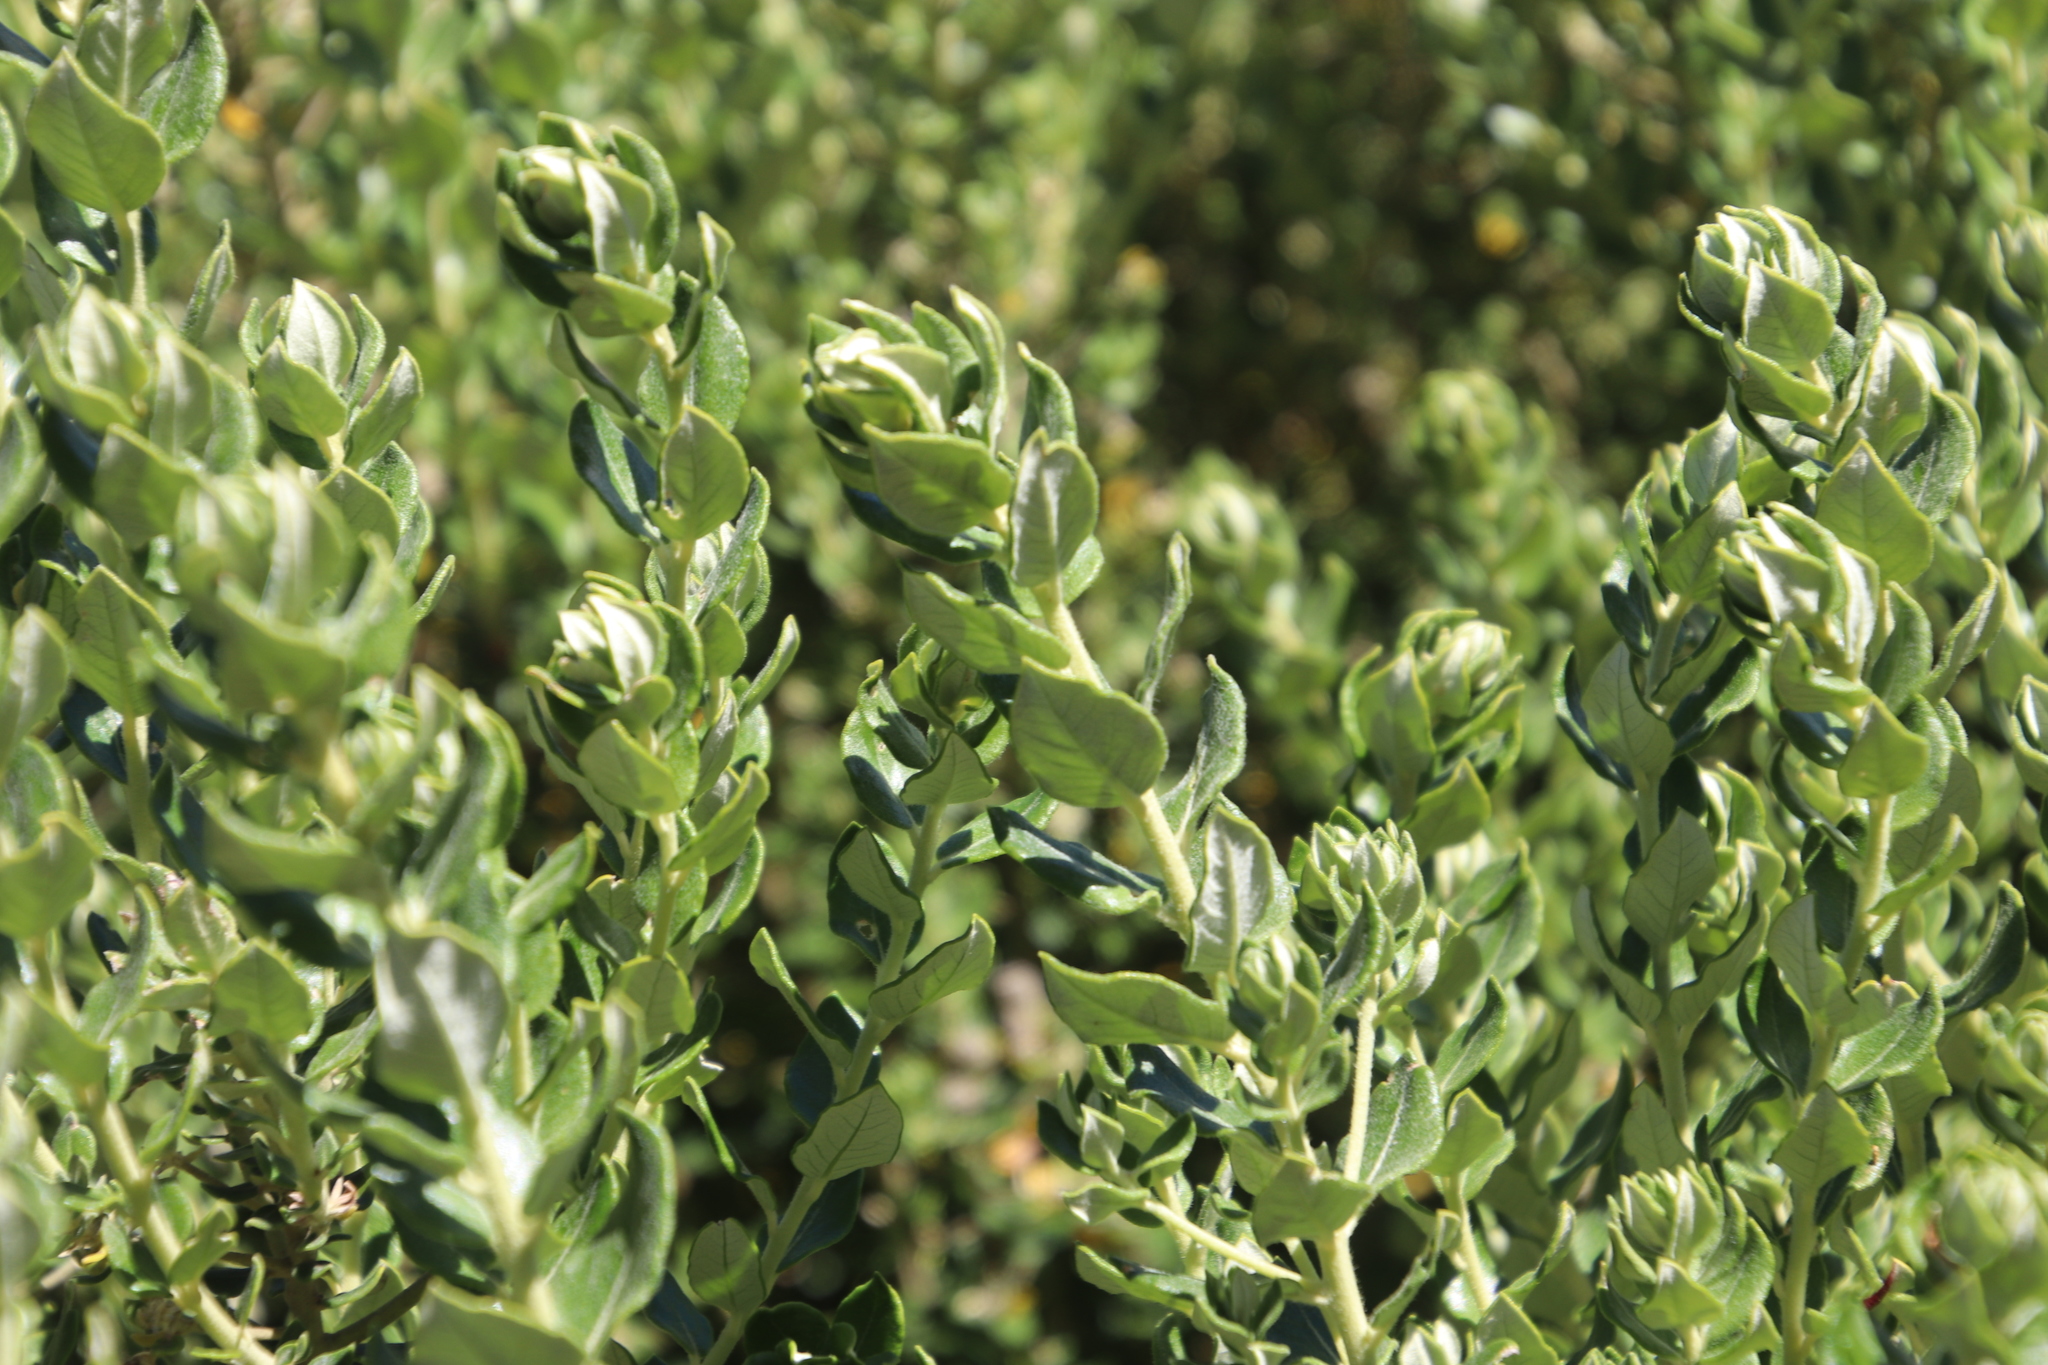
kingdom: Plantae
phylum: Tracheophyta
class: Magnoliopsida
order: Rosales
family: Rhamnaceae
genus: Phylica
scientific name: Phylica buxifolia
